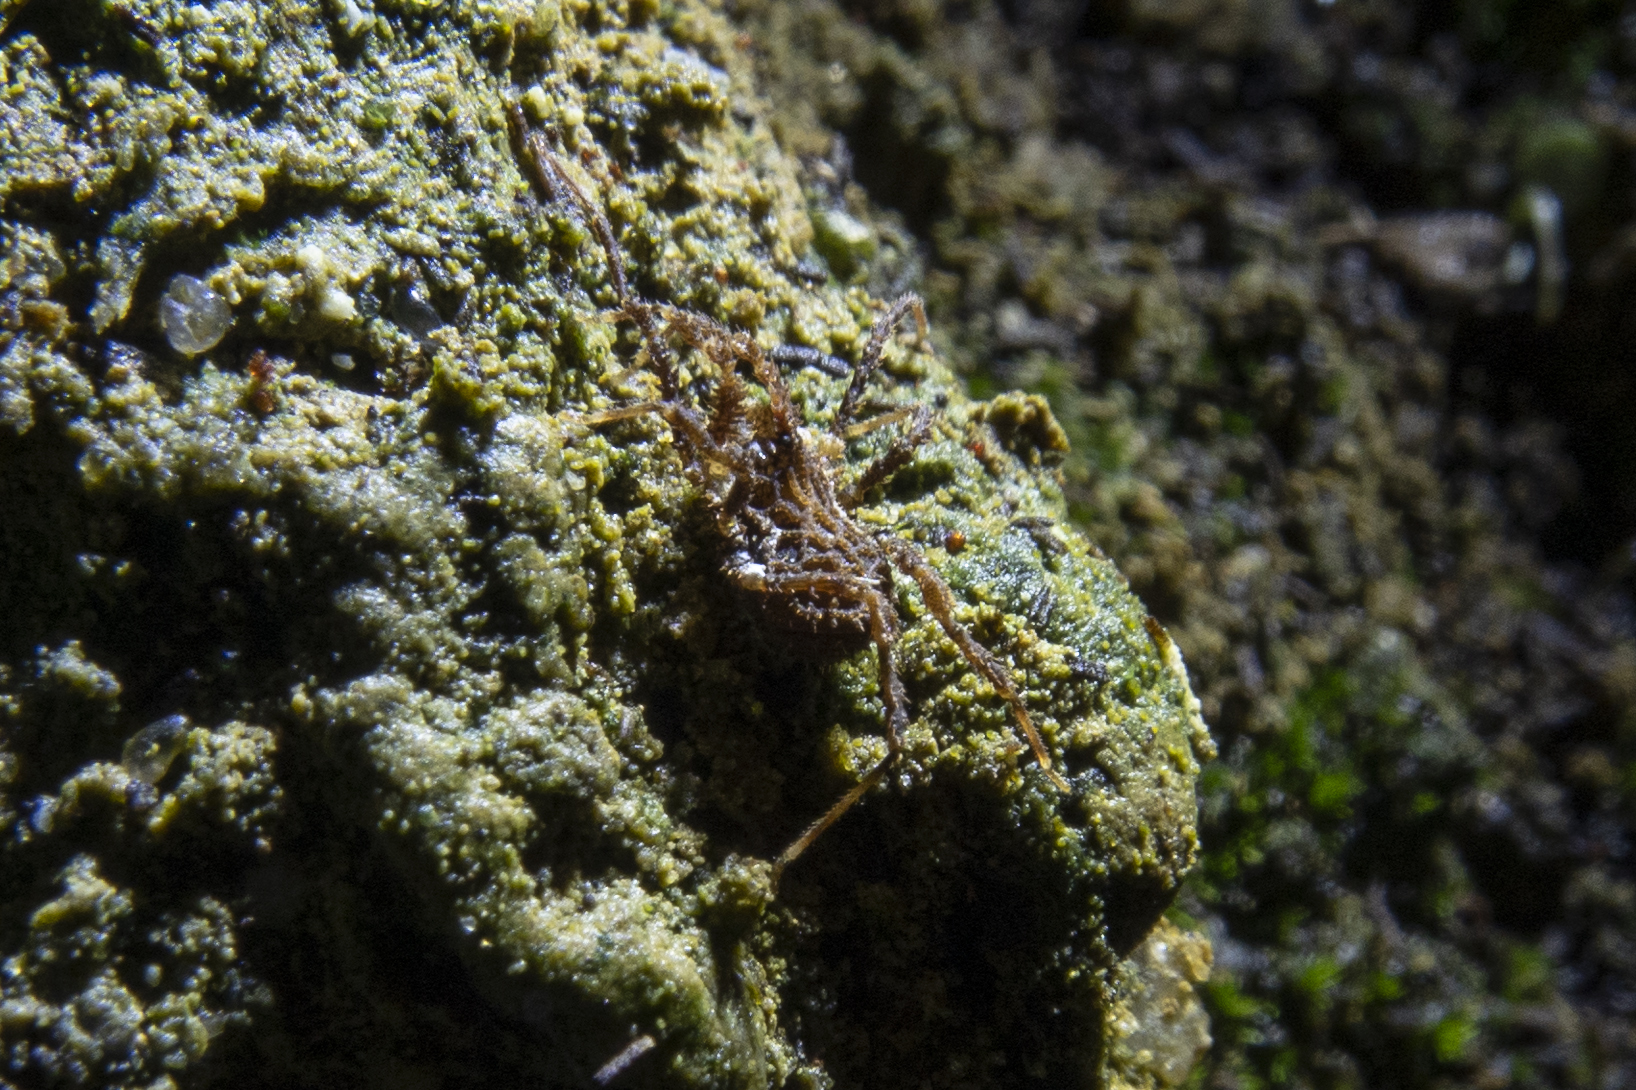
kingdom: Animalia
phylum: Arthropoda
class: Arachnida
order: Opiliones
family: Triaenonychidae
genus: Pristobunus
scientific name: Pristobunus acuminatus
